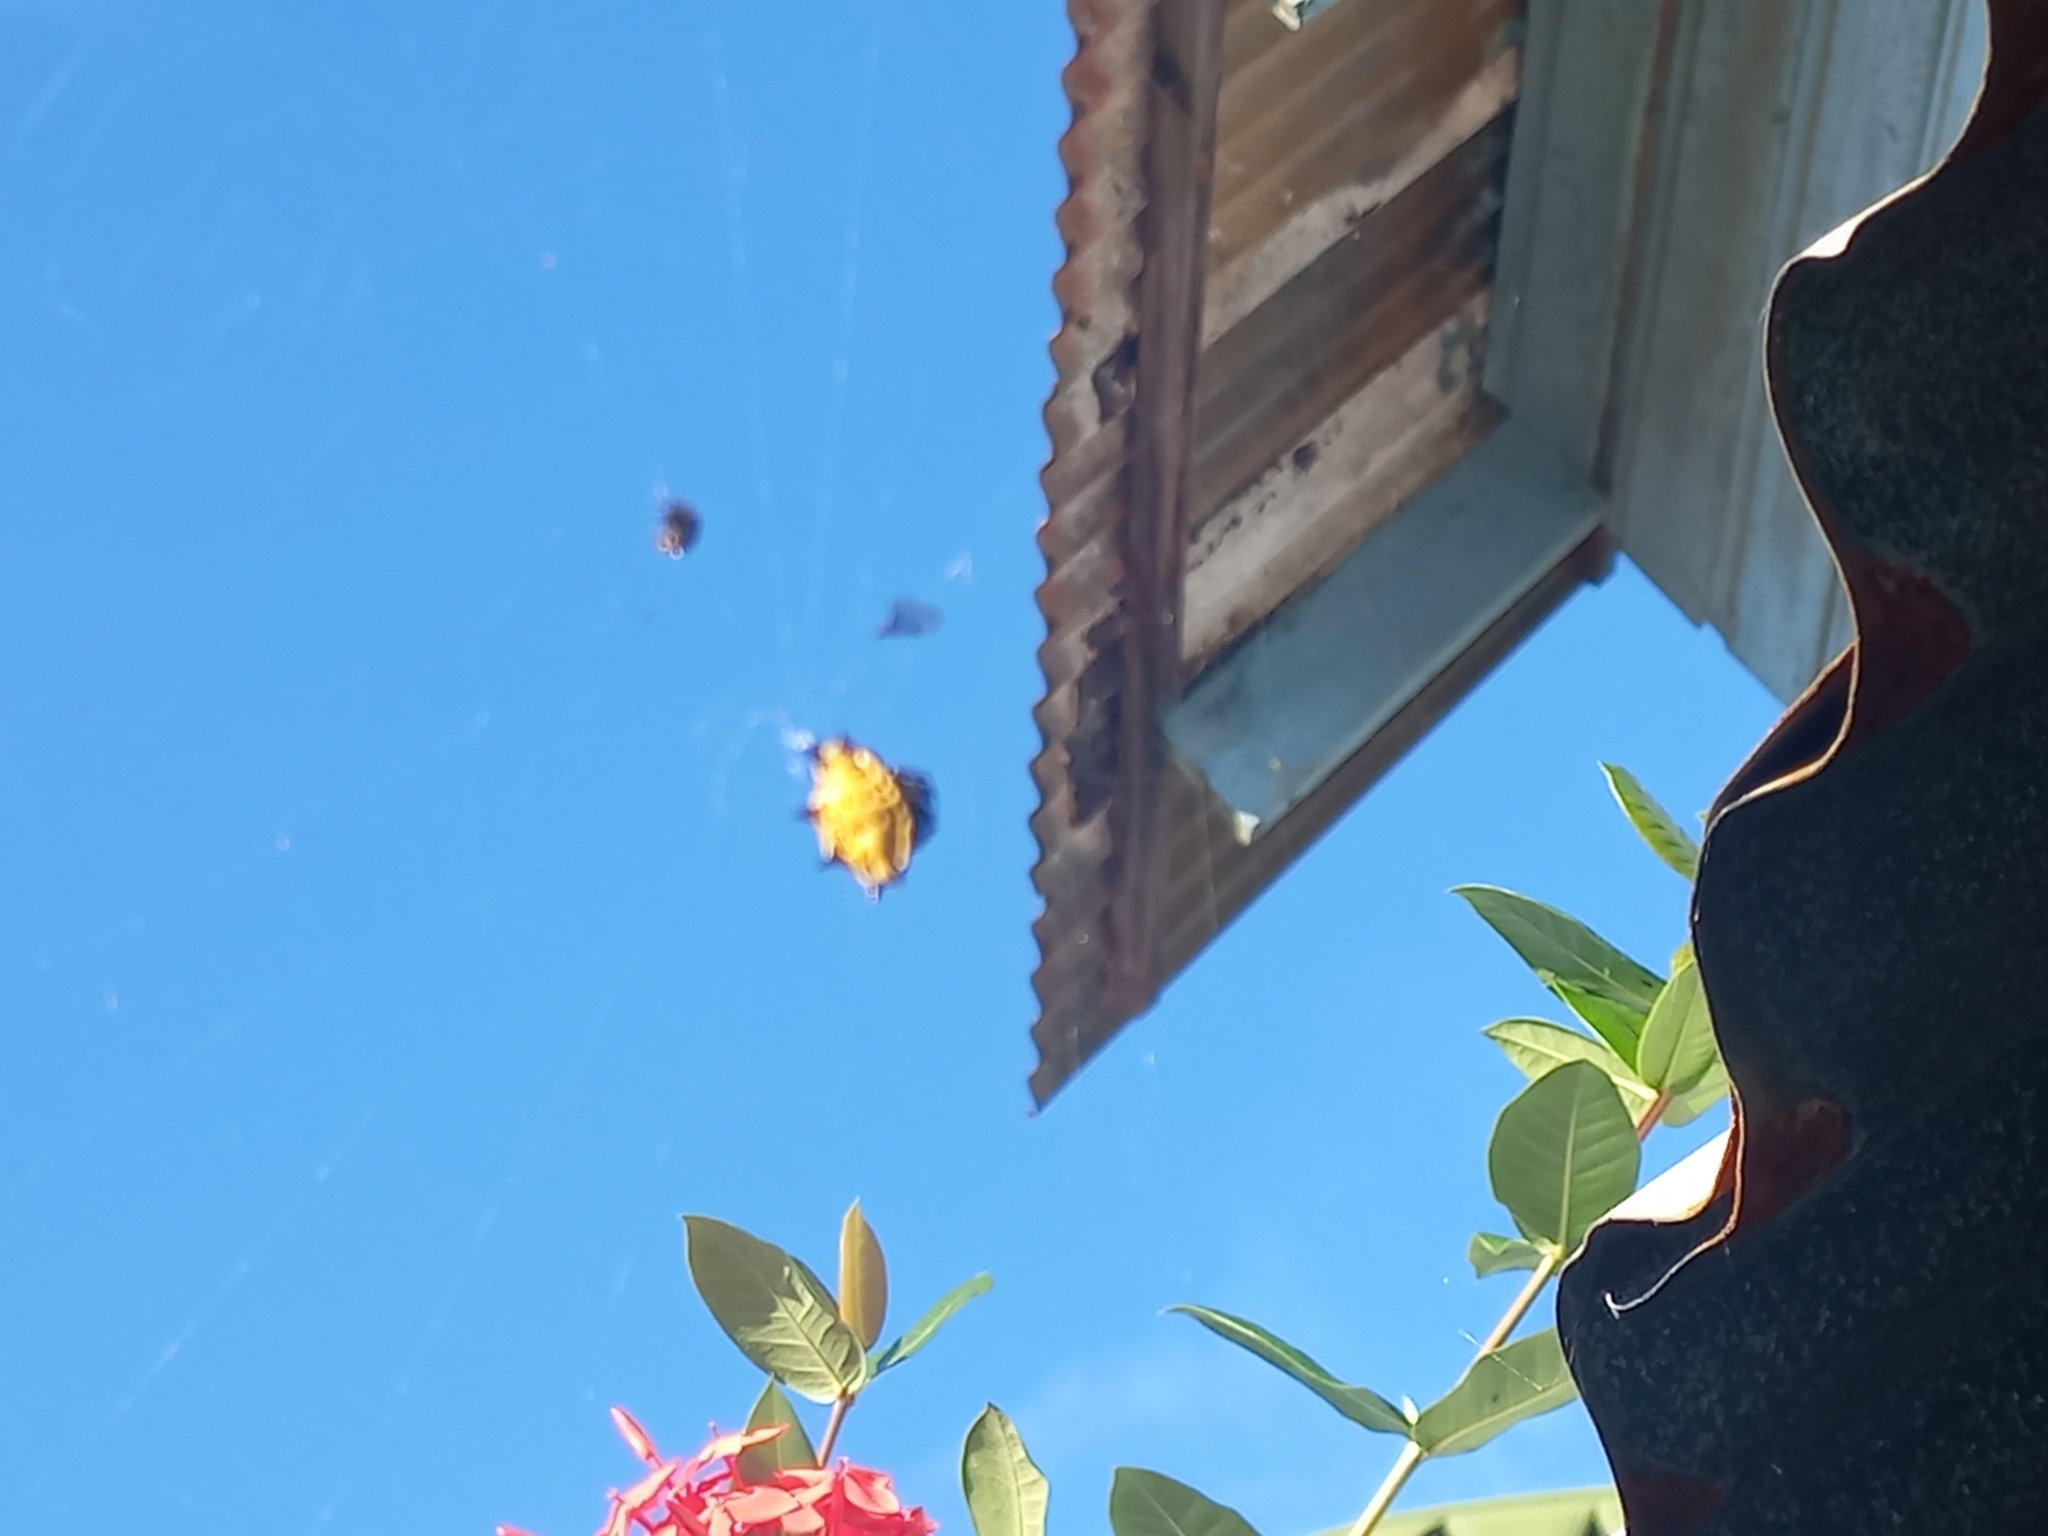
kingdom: Animalia
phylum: Arthropoda
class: Arachnida
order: Araneae
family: Araneidae
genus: Gasteracantha
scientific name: Gasteracantha cancriformis
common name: Orb weavers
